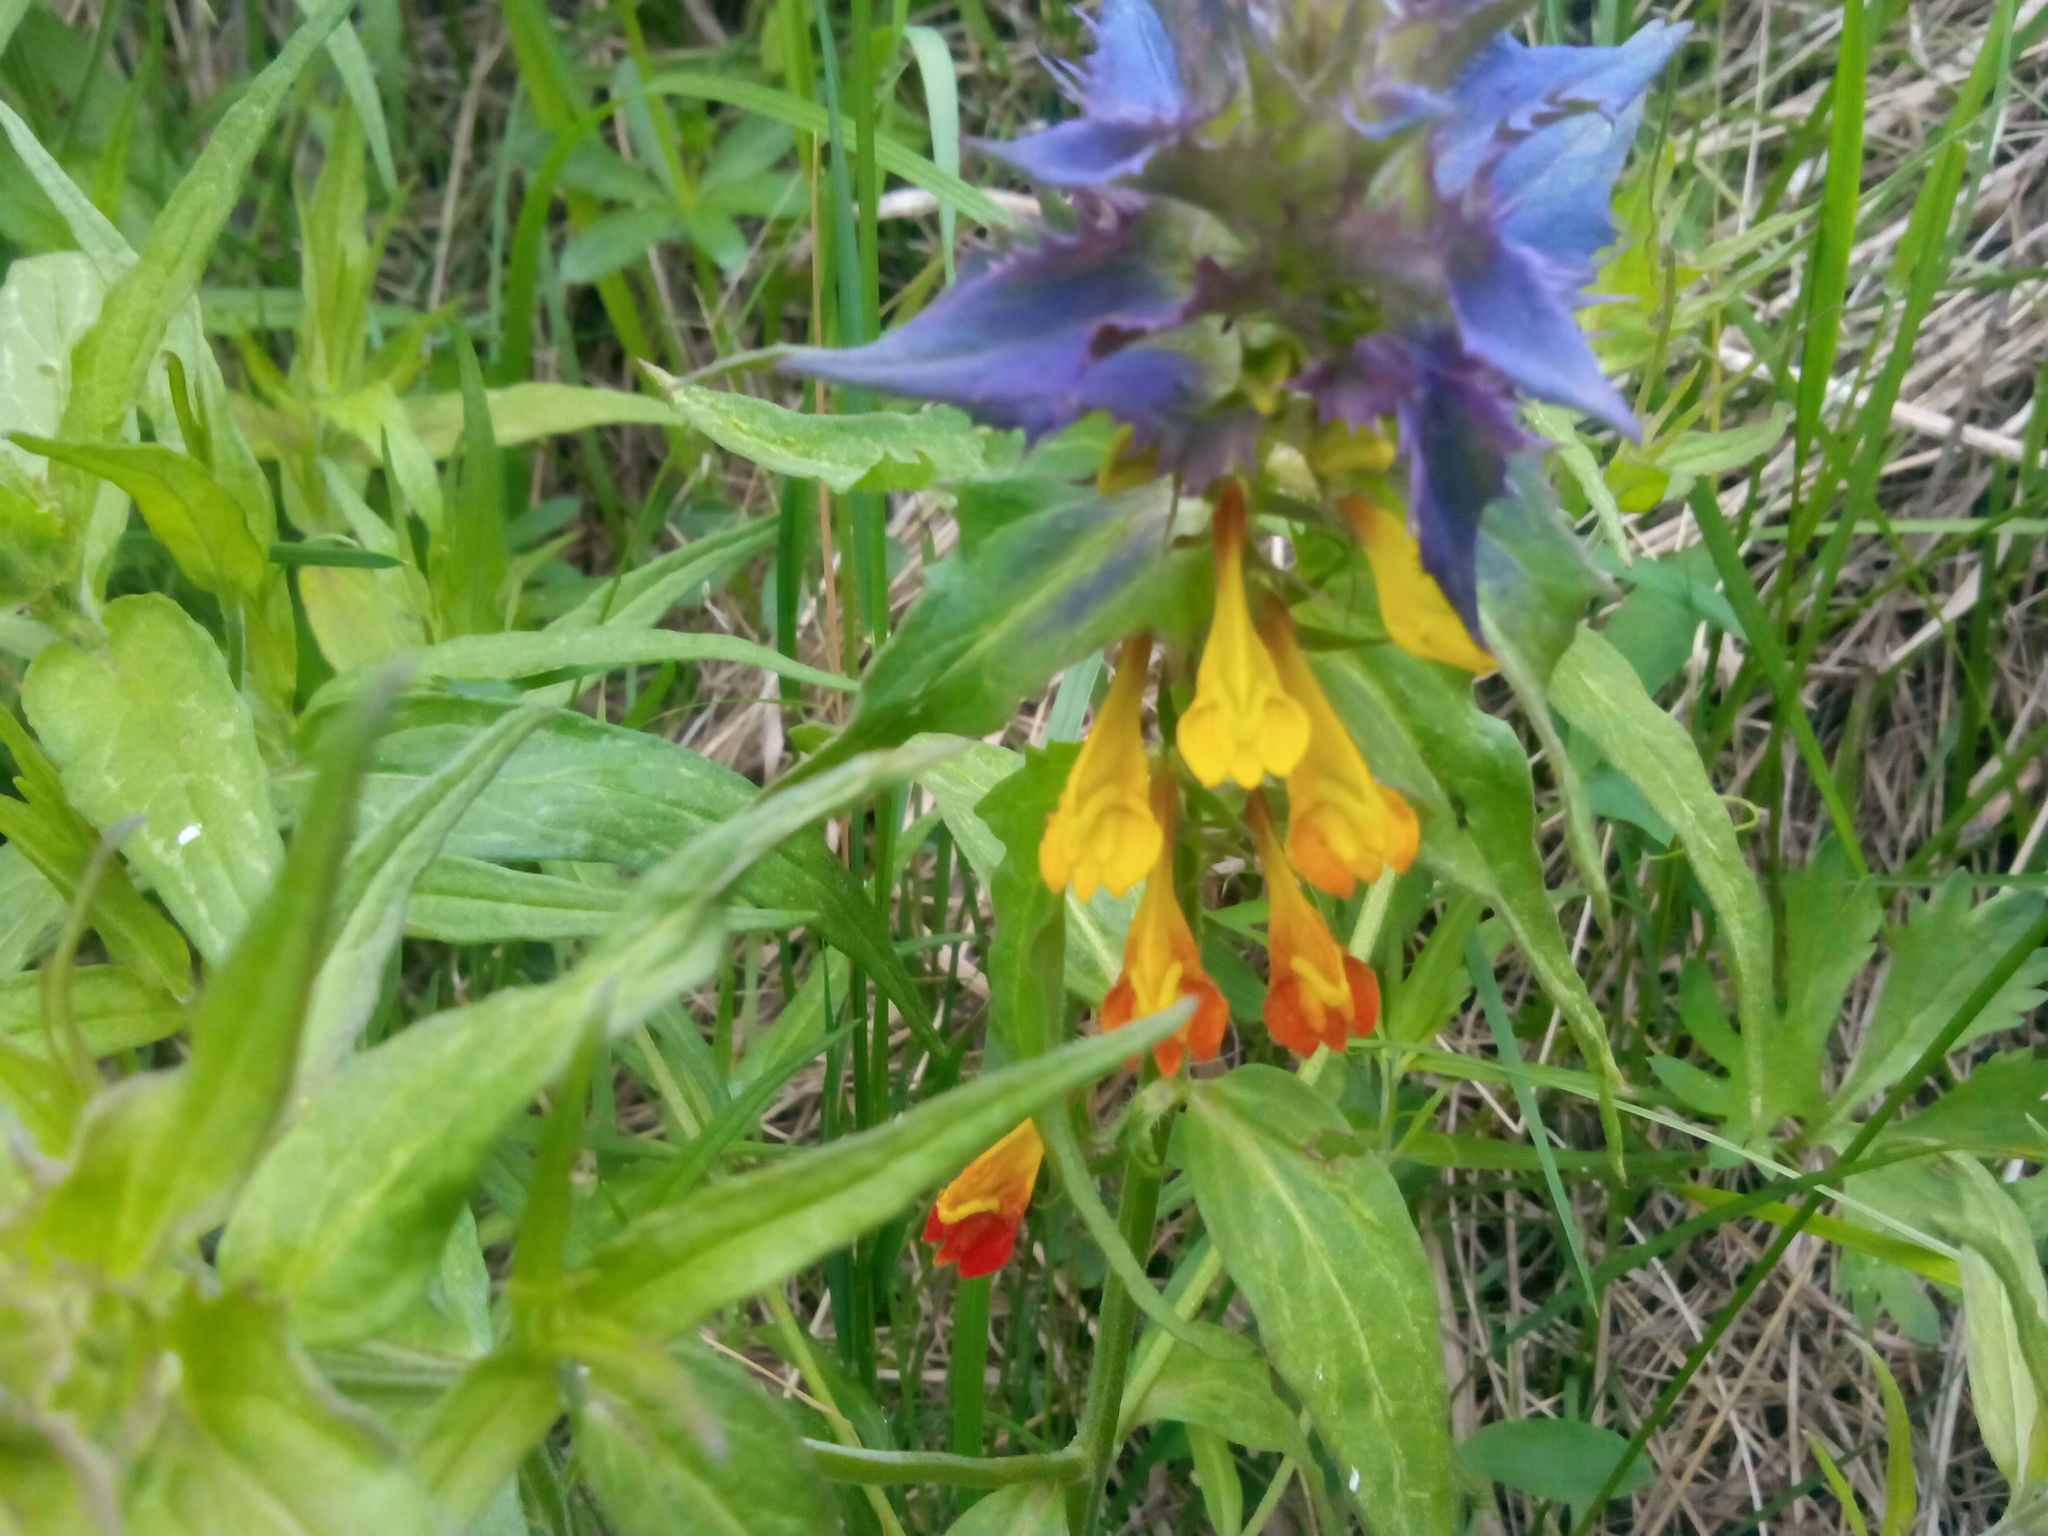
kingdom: Plantae
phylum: Tracheophyta
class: Magnoliopsida
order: Lamiales
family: Orobanchaceae
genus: Melampyrum
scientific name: Melampyrum nemorosum
